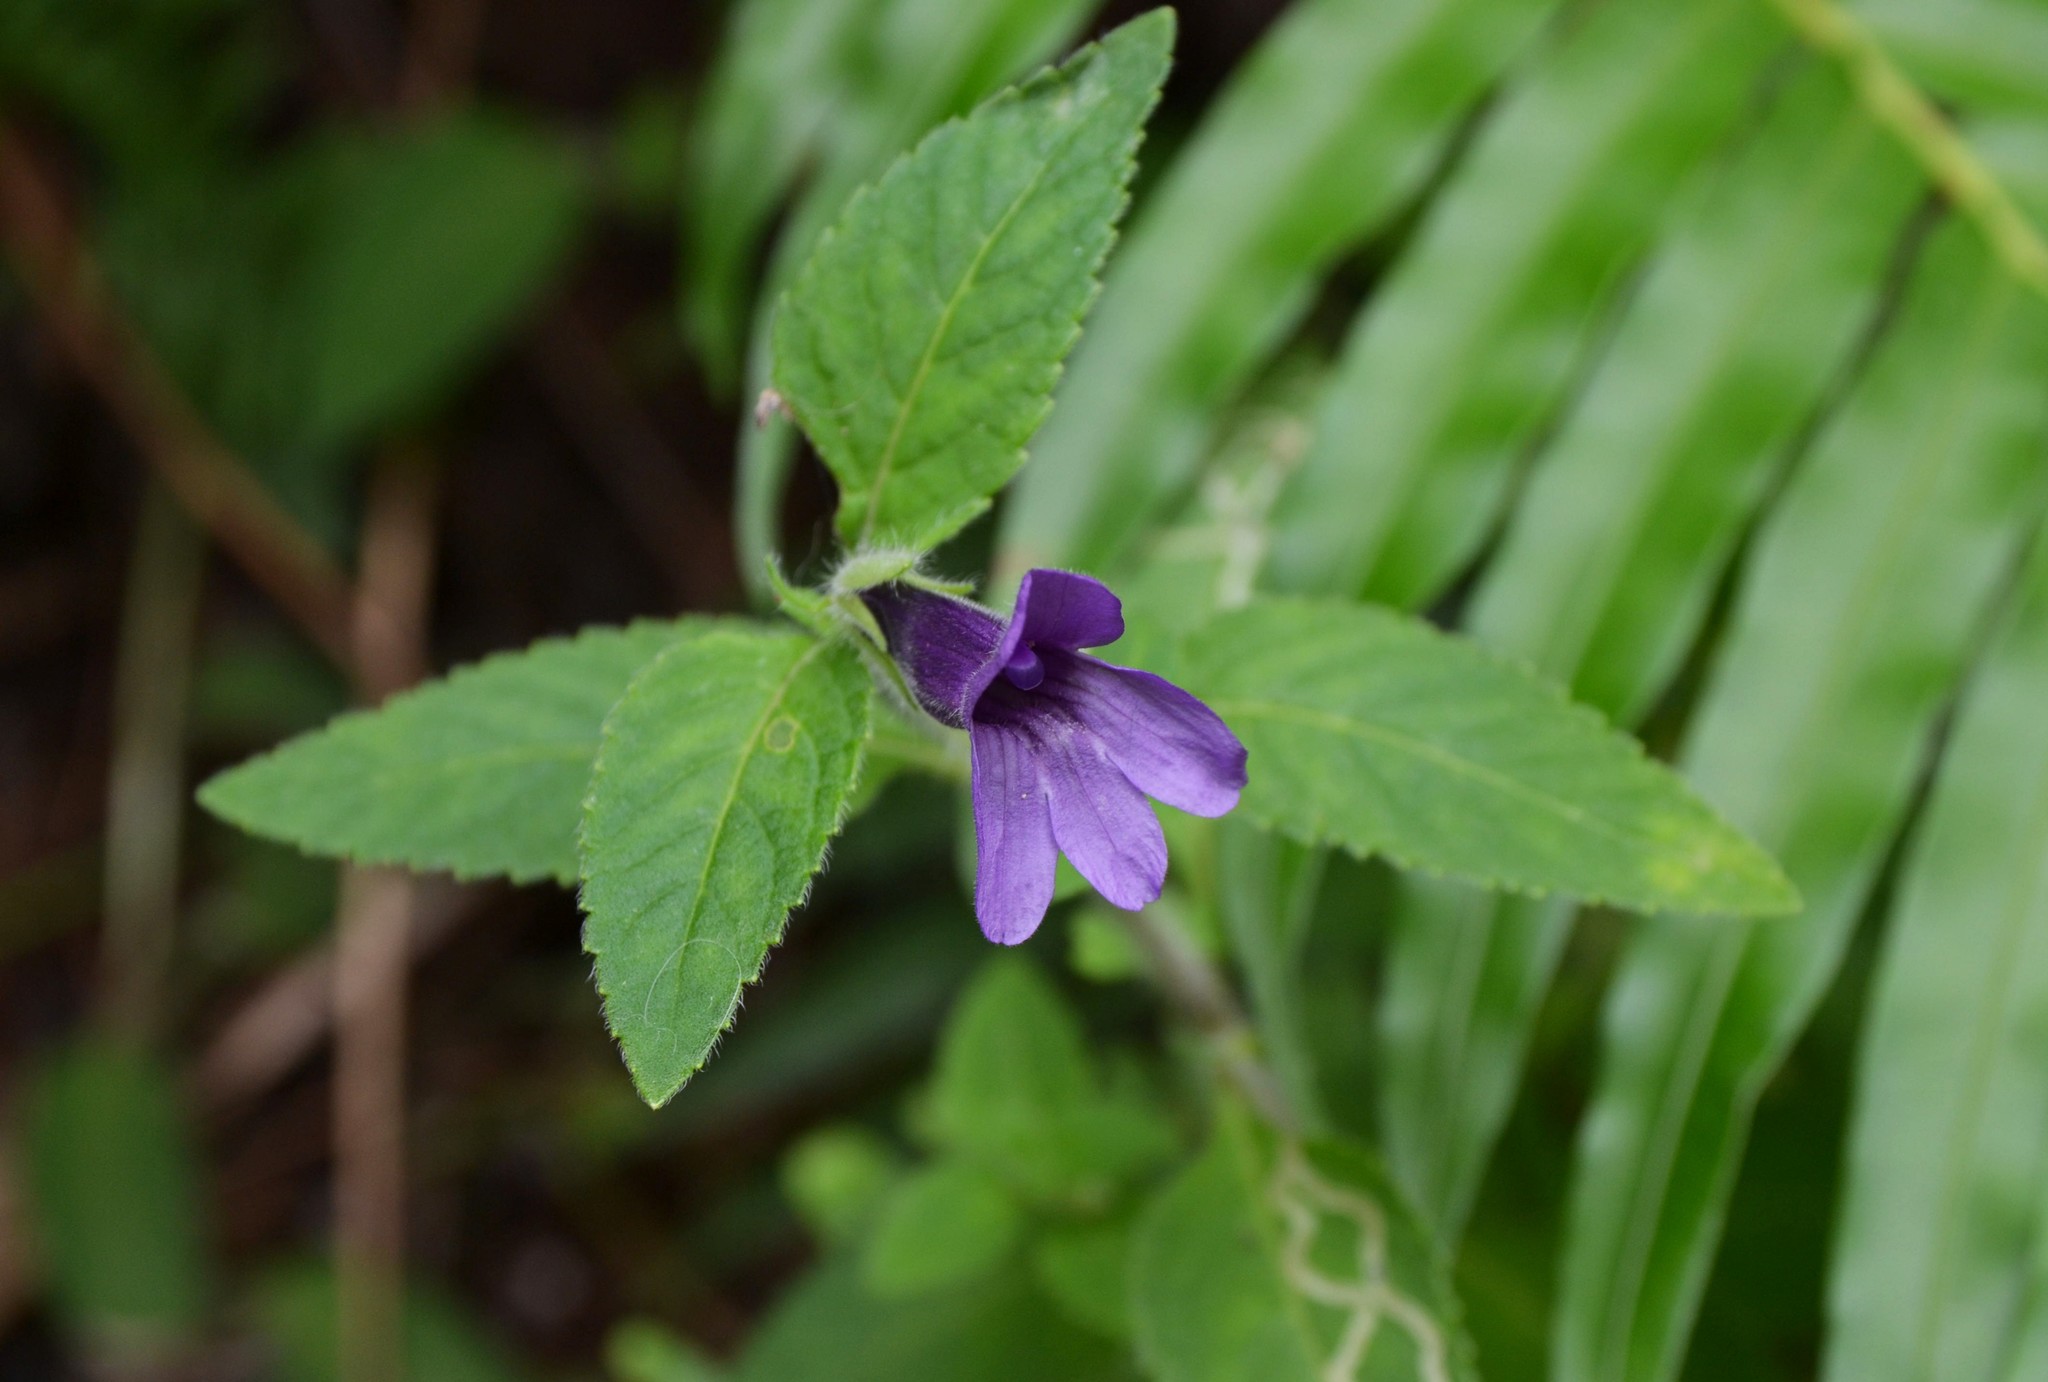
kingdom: Plantae
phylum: Tracheophyta
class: Magnoliopsida
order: Lamiales
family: Plantaginaceae
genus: Adenosma
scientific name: Adenosma glutinosa
